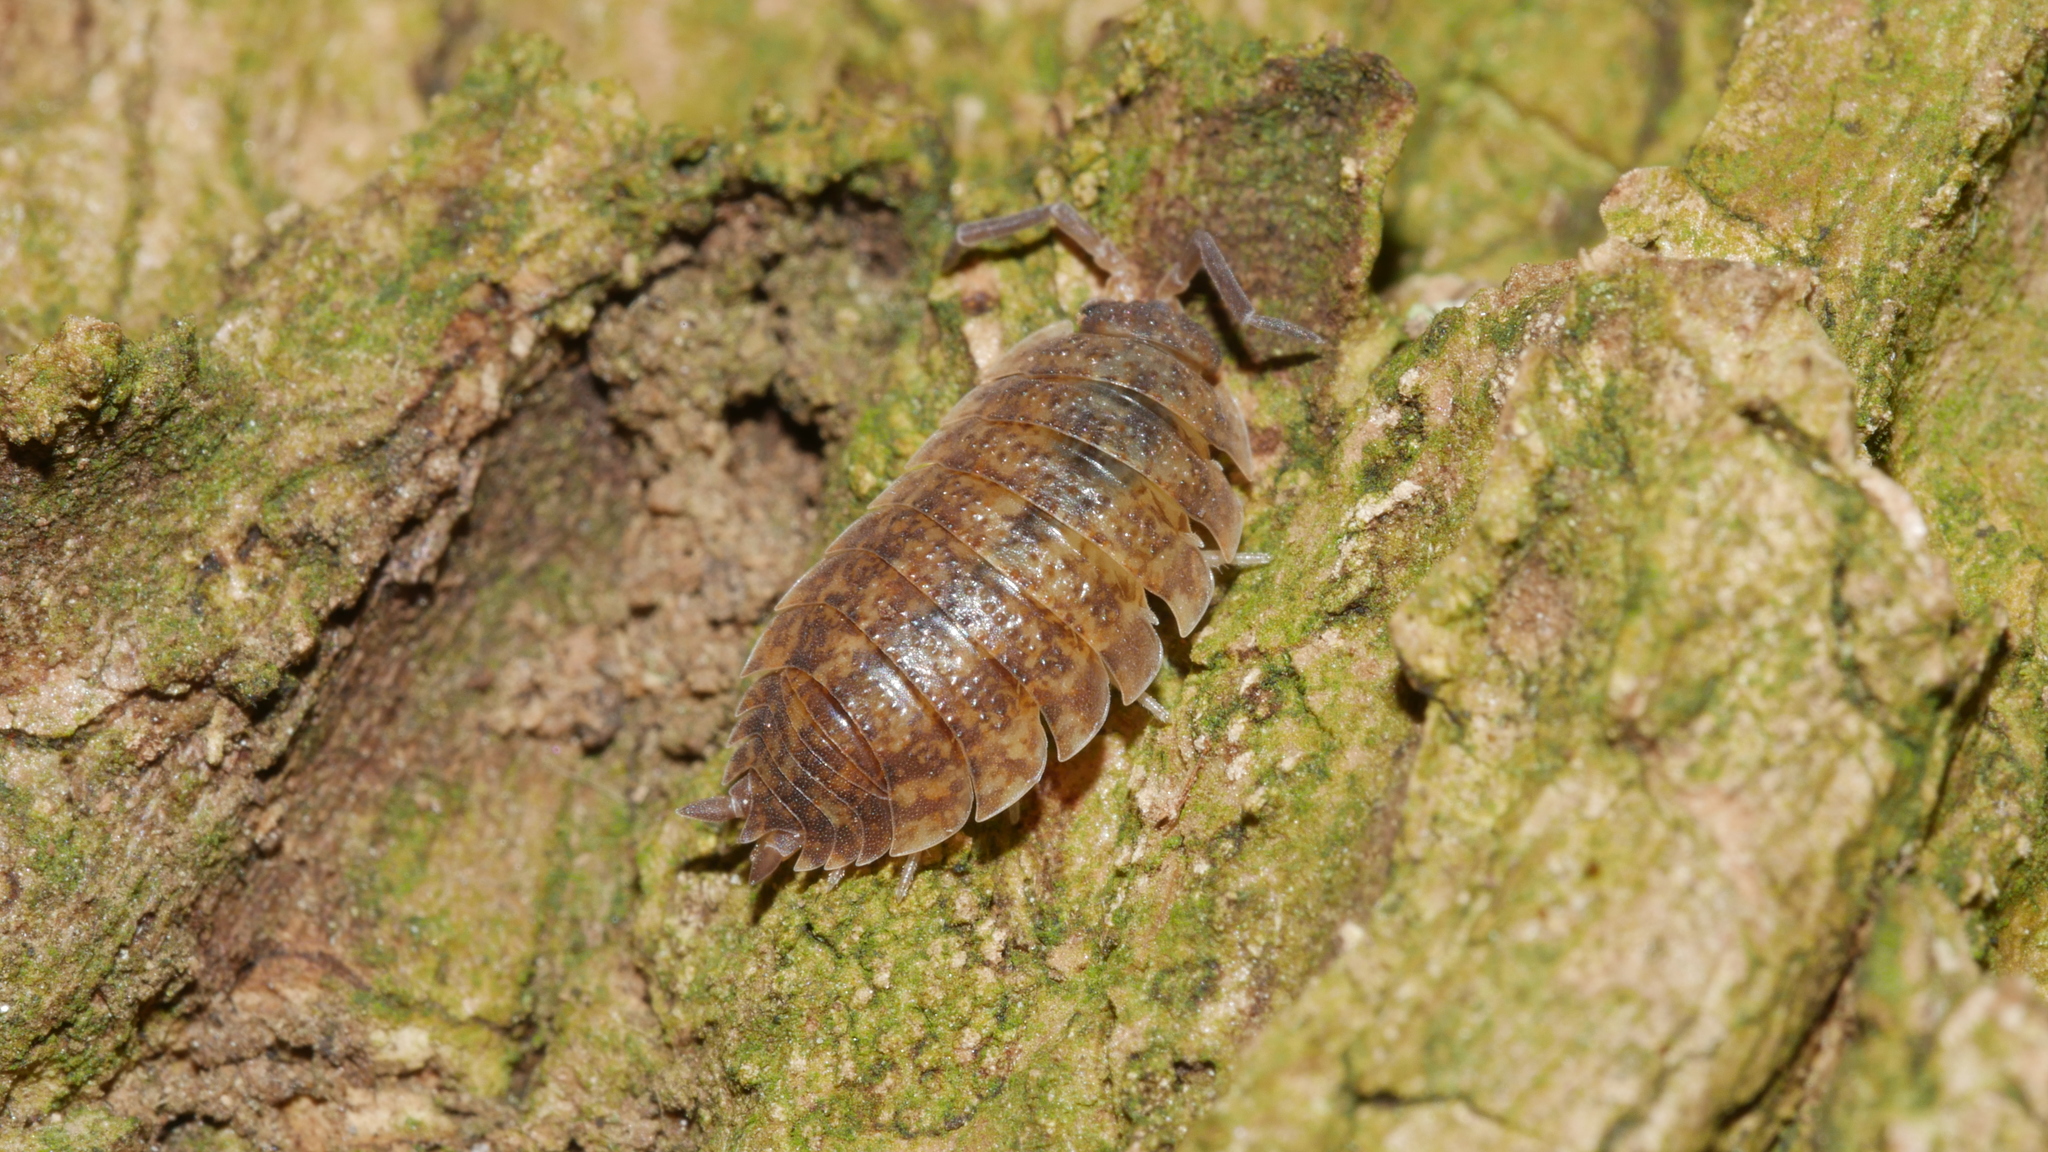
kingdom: Animalia
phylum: Arthropoda
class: Malacostraca
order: Isopoda
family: Porcellionidae
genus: Porcellio
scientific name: Porcellio scaber
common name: Common rough woodlouse
